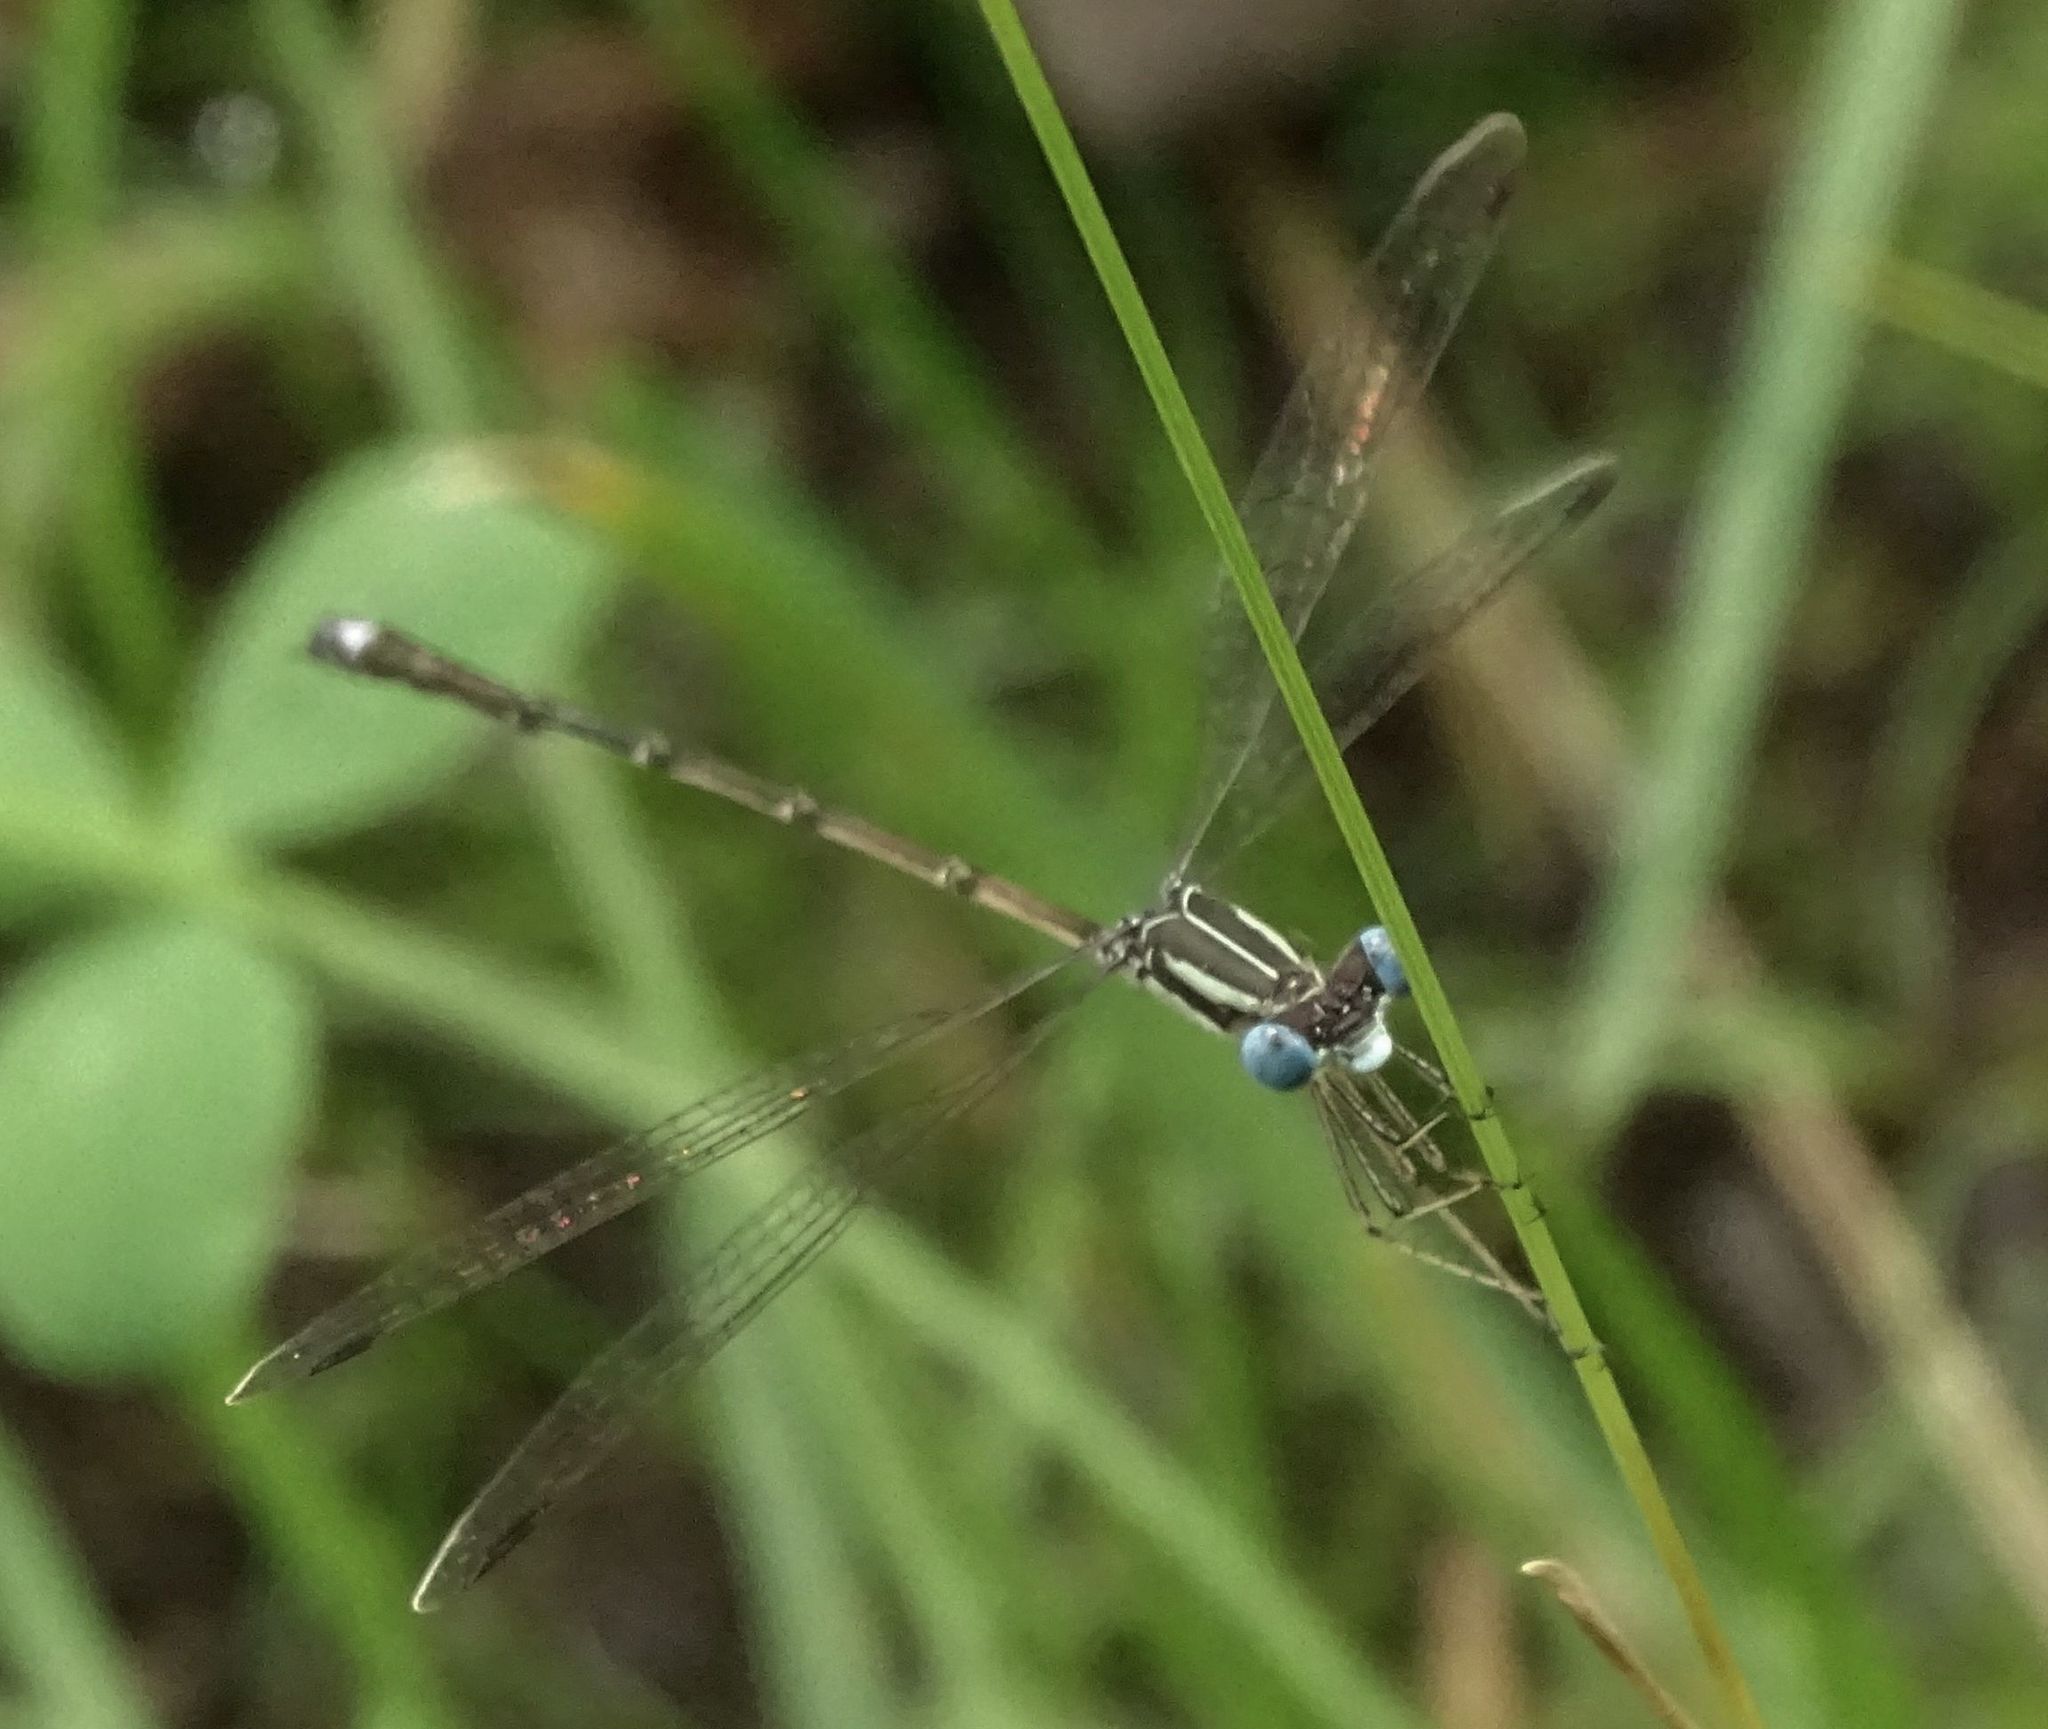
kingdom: Animalia
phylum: Arthropoda
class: Insecta
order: Odonata
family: Lestidae
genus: Lestes
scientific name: Lestes rectangularis
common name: Slender spreadwing
